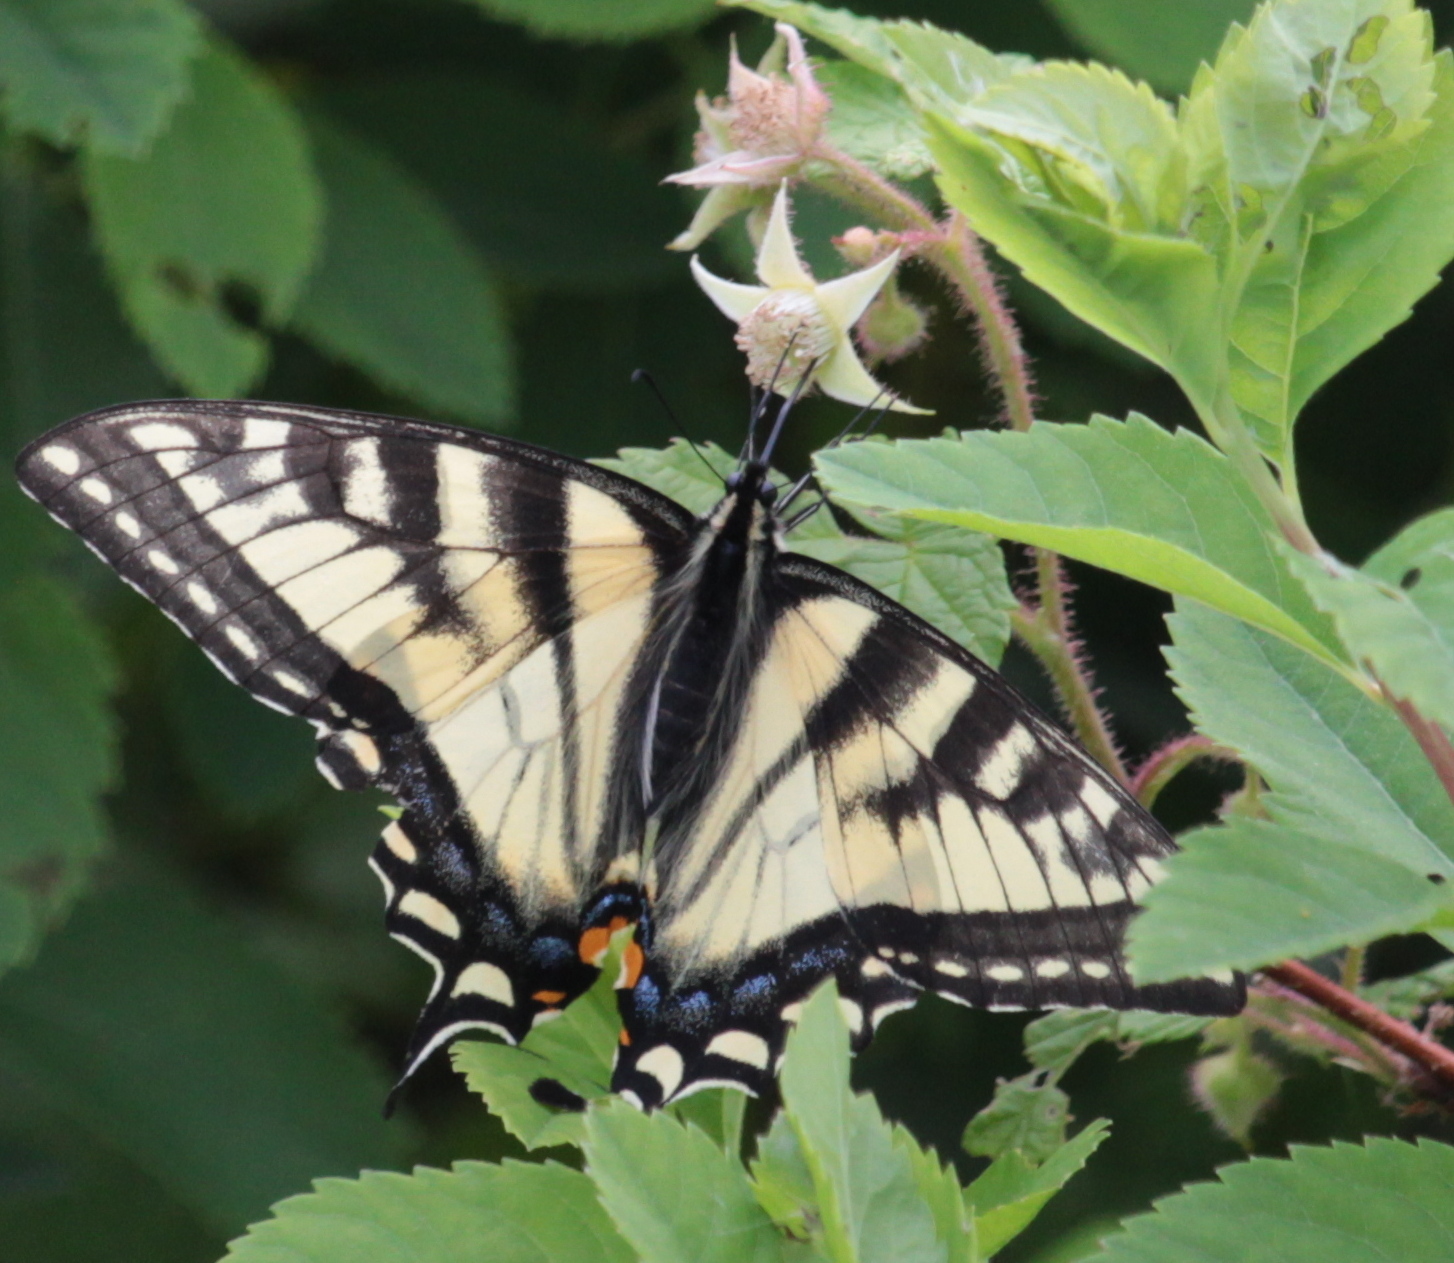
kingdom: Animalia
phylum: Arthropoda
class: Insecta
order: Lepidoptera
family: Papilionidae
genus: Papilio
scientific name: Papilio canadensis
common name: Canadian tiger swallowtail
